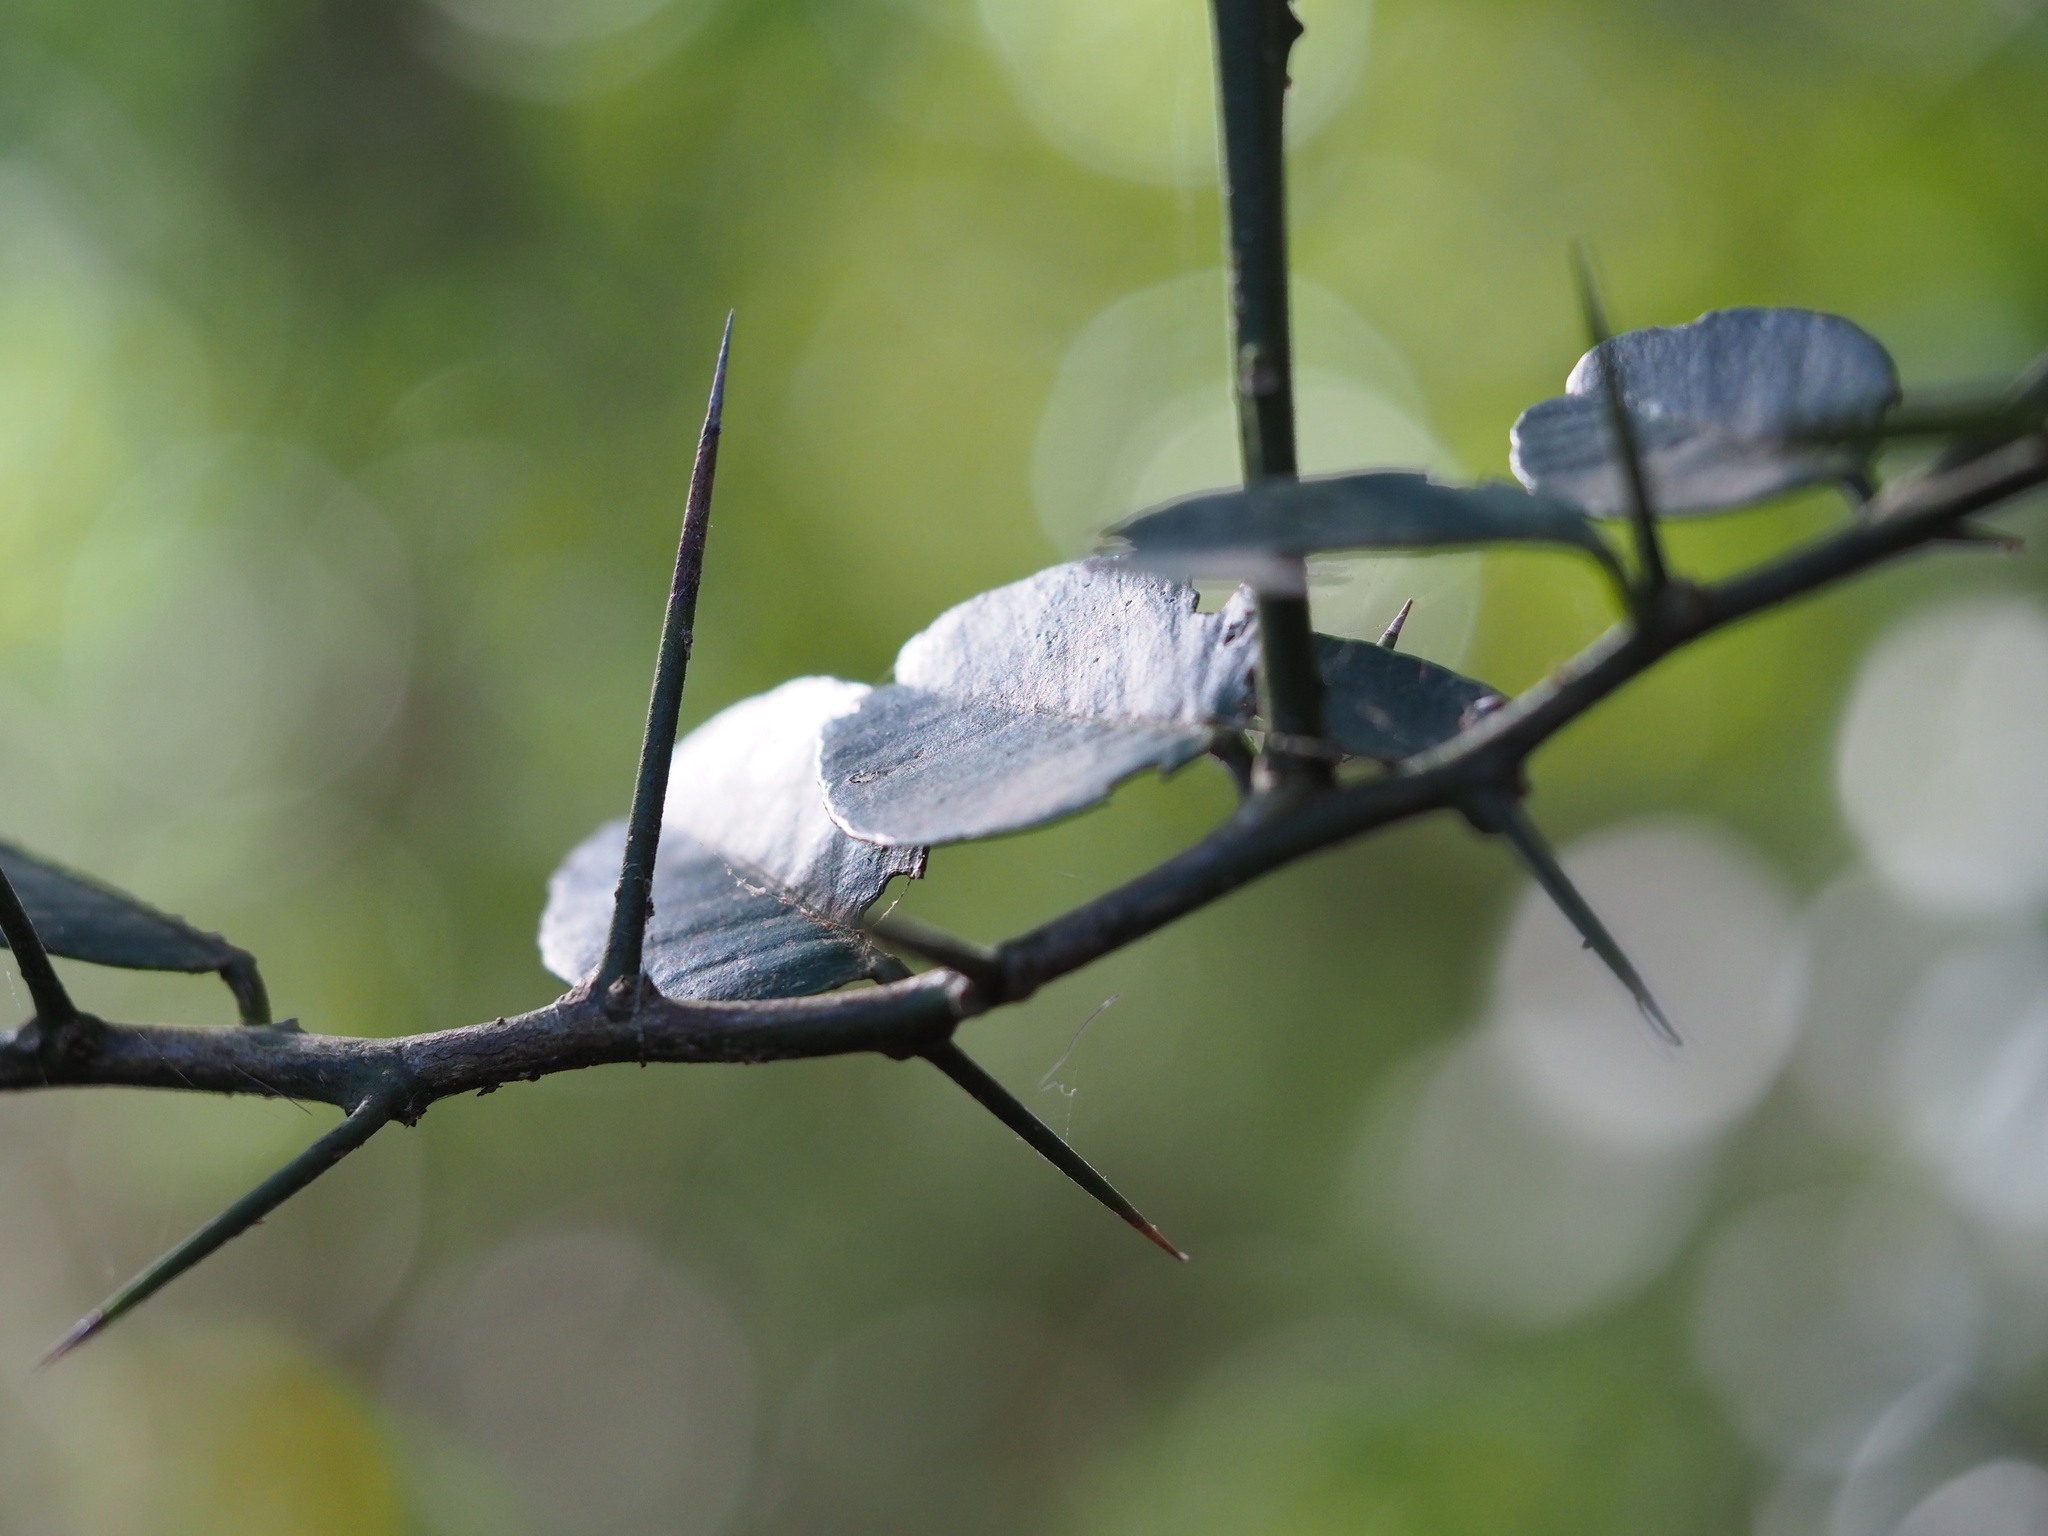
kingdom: Plantae
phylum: Tracheophyta
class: Magnoliopsida
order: Sapindales
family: Rutaceae
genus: Atalantia
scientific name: Atalantia buxifolia
